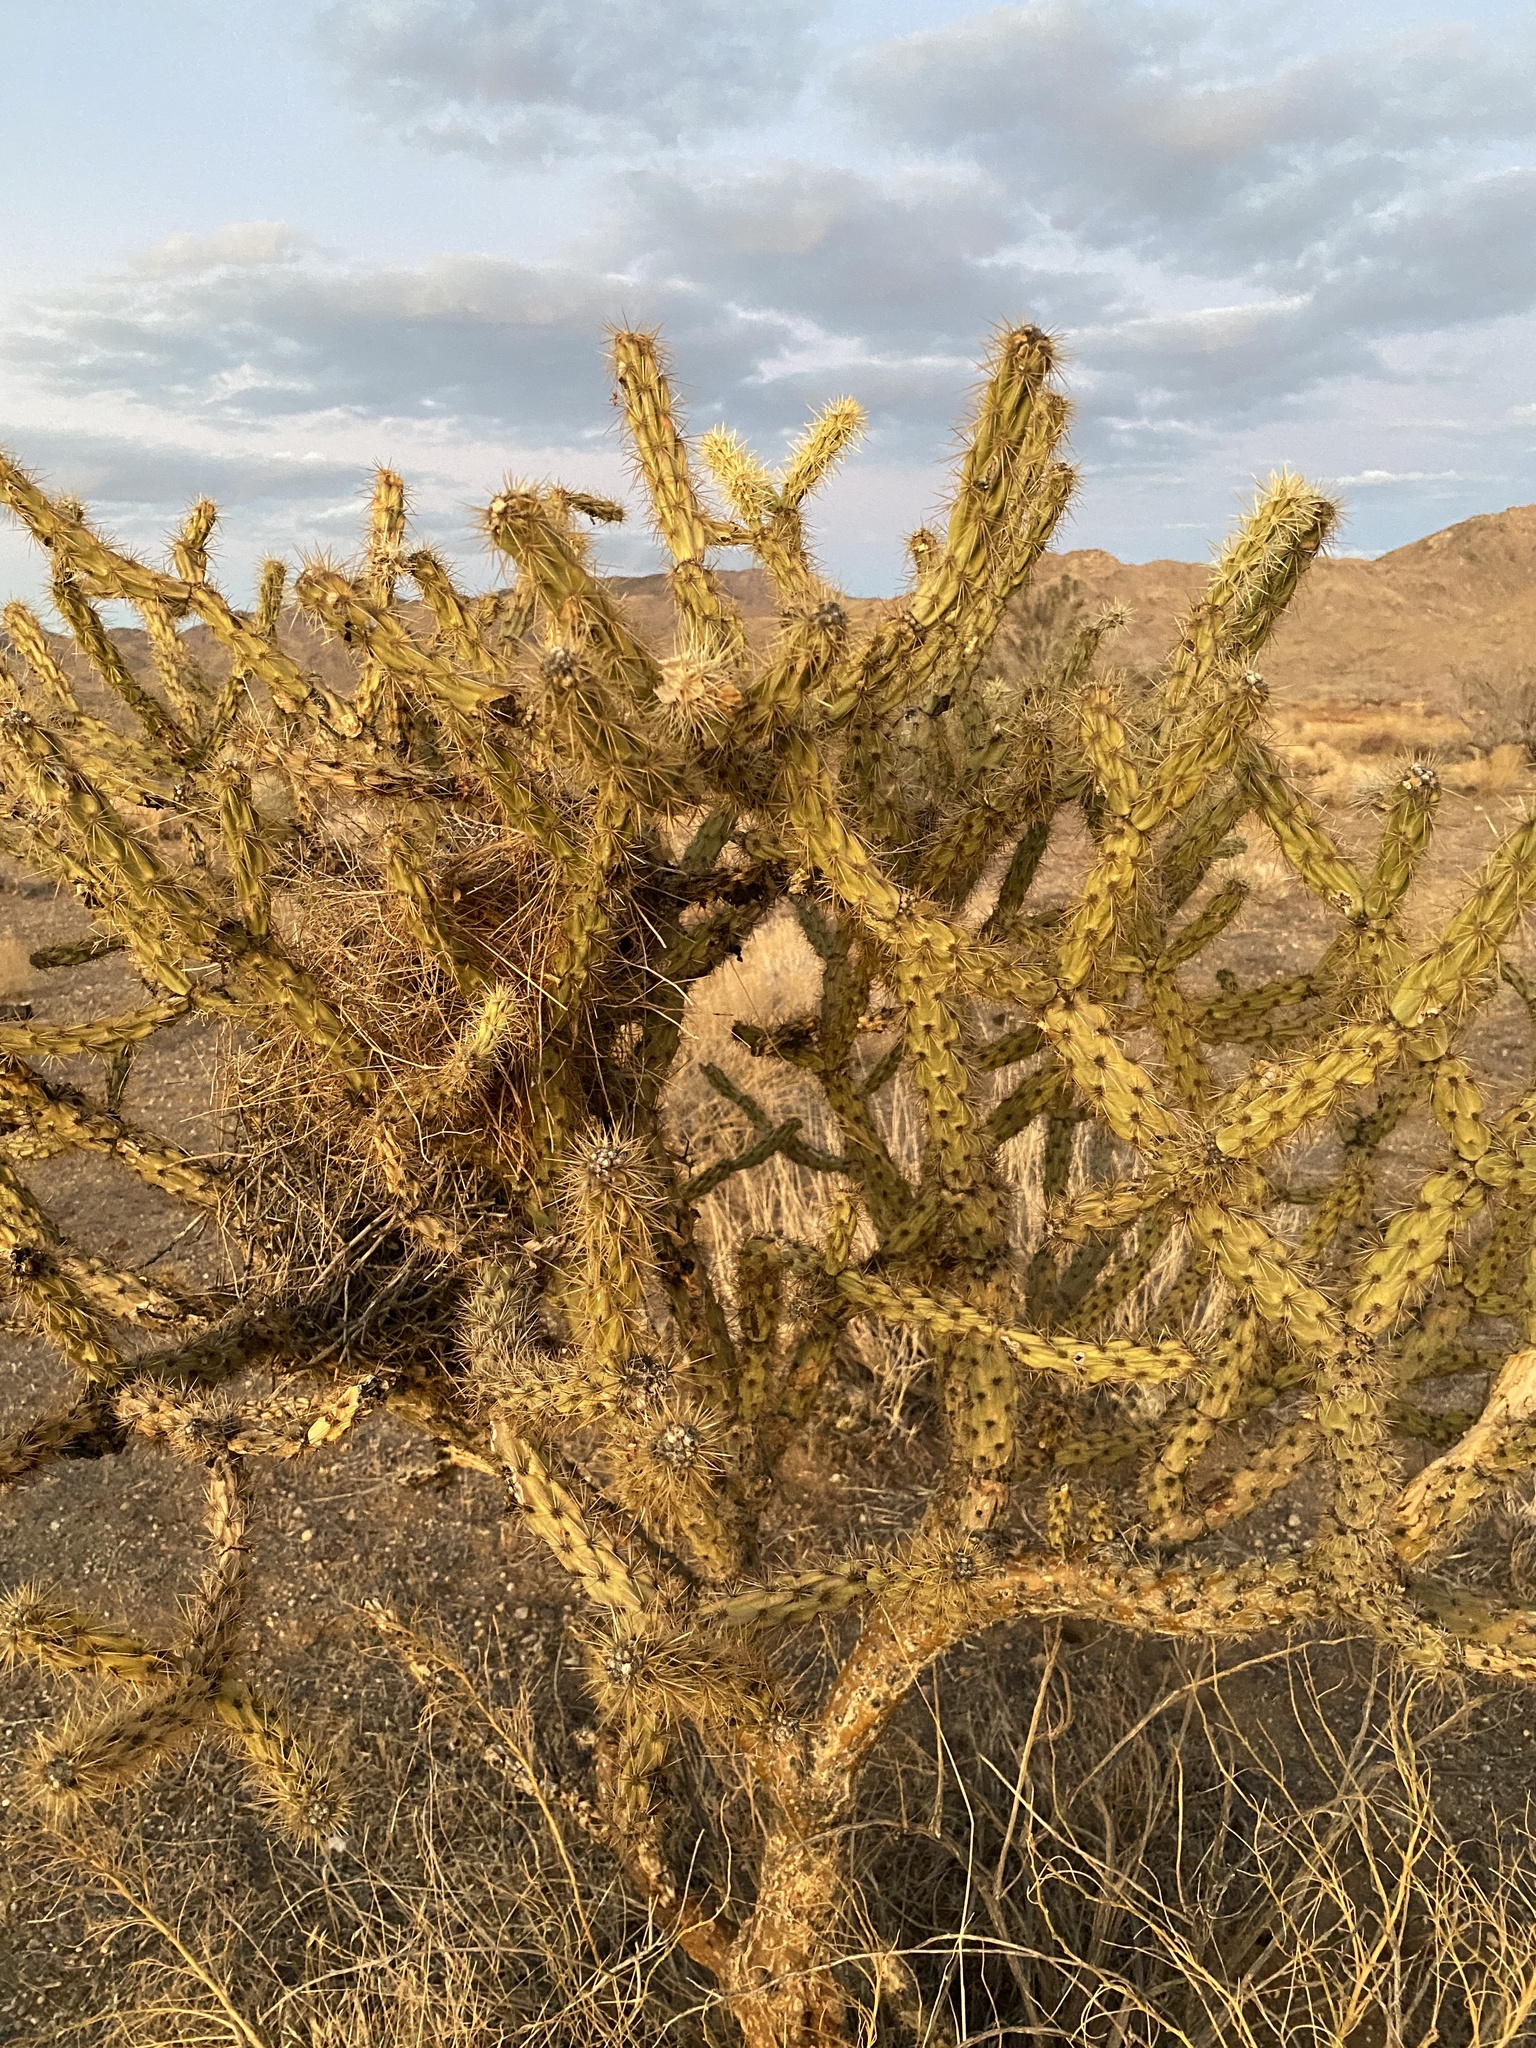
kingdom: Plantae
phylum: Tracheophyta
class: Magnoliopsida
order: Caryophyllales
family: Cactaceae
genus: Cylindropuntia
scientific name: Cylindropuntia acanthocarpa
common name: Buckhorn cholla
